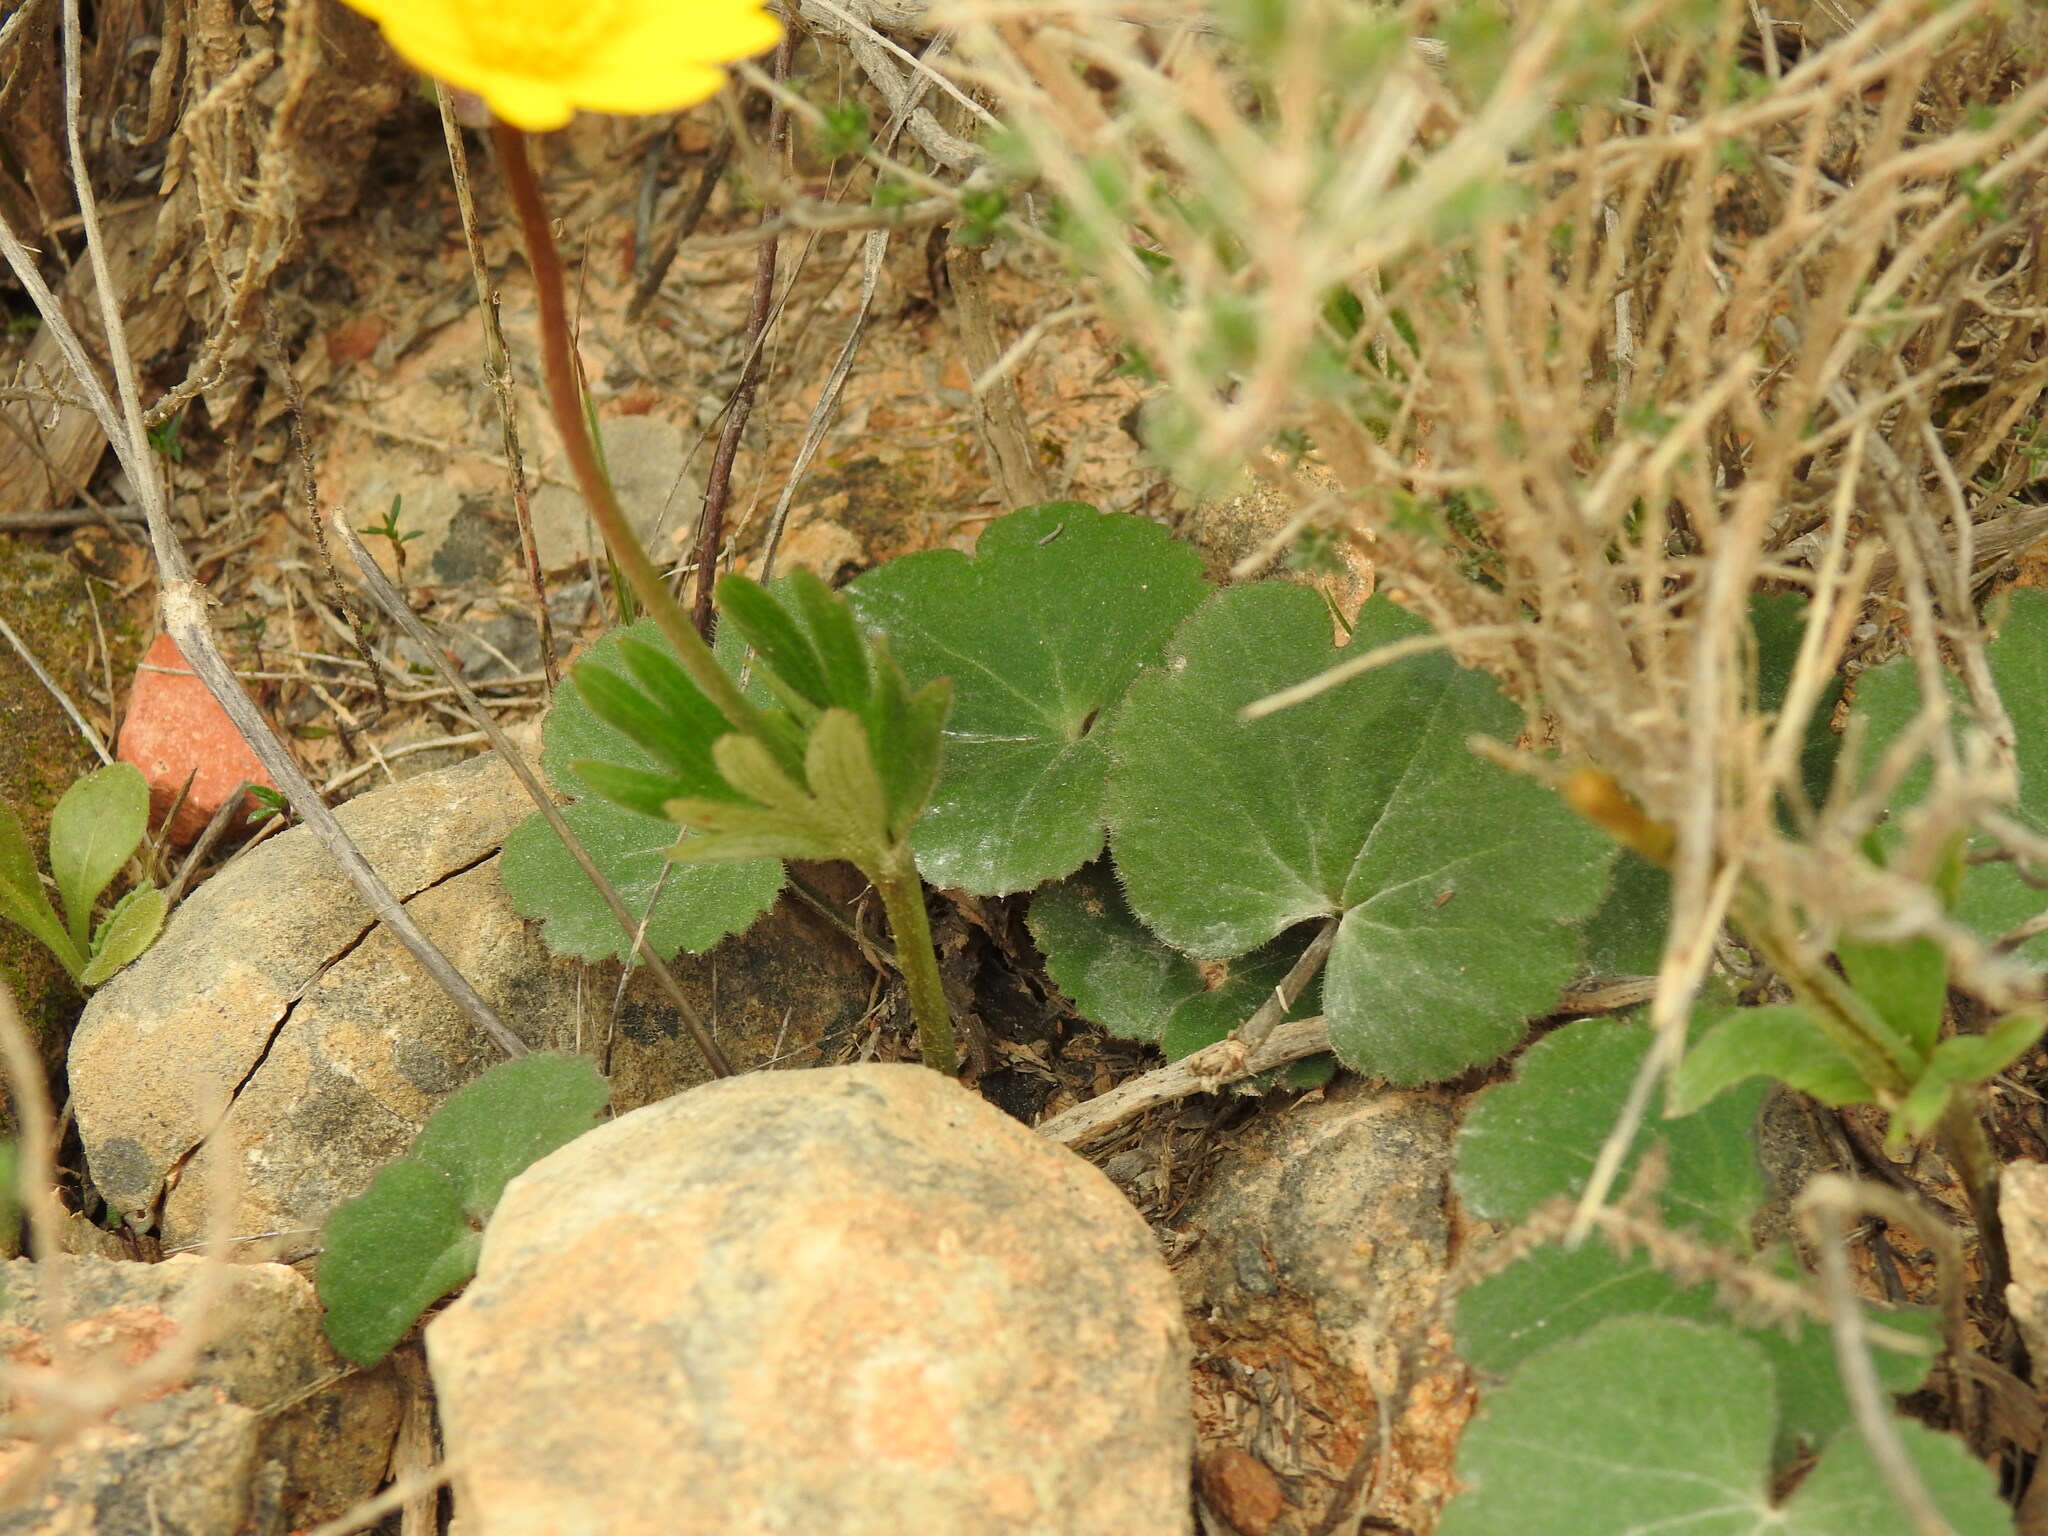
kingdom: Plantae
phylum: Tracheophyta
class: Magnoliopsida
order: Ranunculales
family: Ranunculaceae
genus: Anemone
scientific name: Anemone palmata
